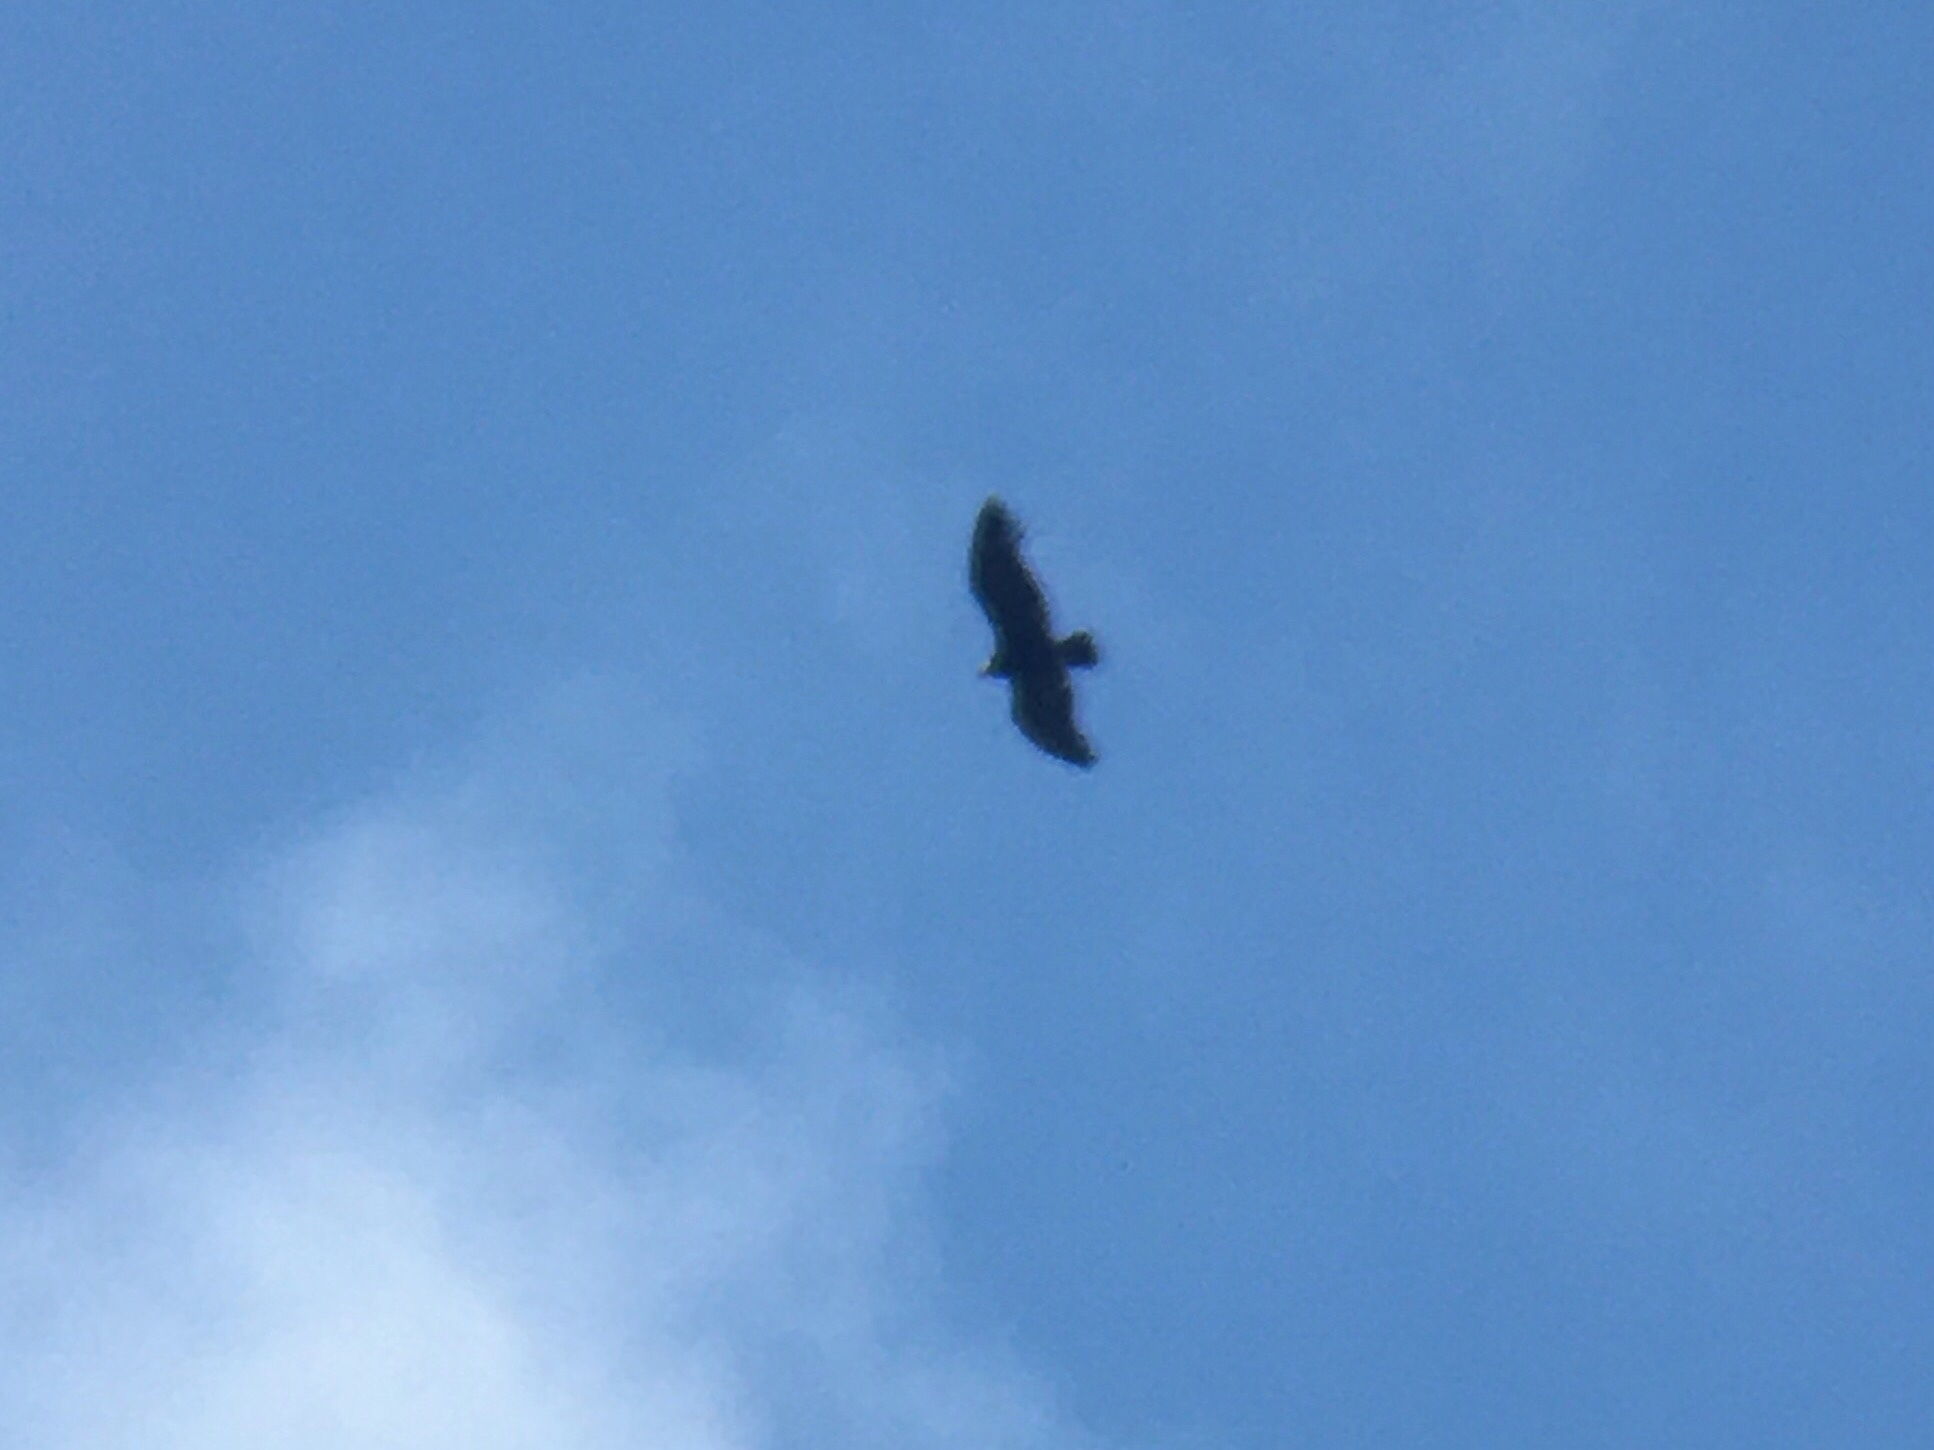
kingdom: Animalia
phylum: Chordata
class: Aves
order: Accipitriformes
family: Cathartidae
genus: Vultur
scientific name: Vultur gryphus
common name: Andean condor
